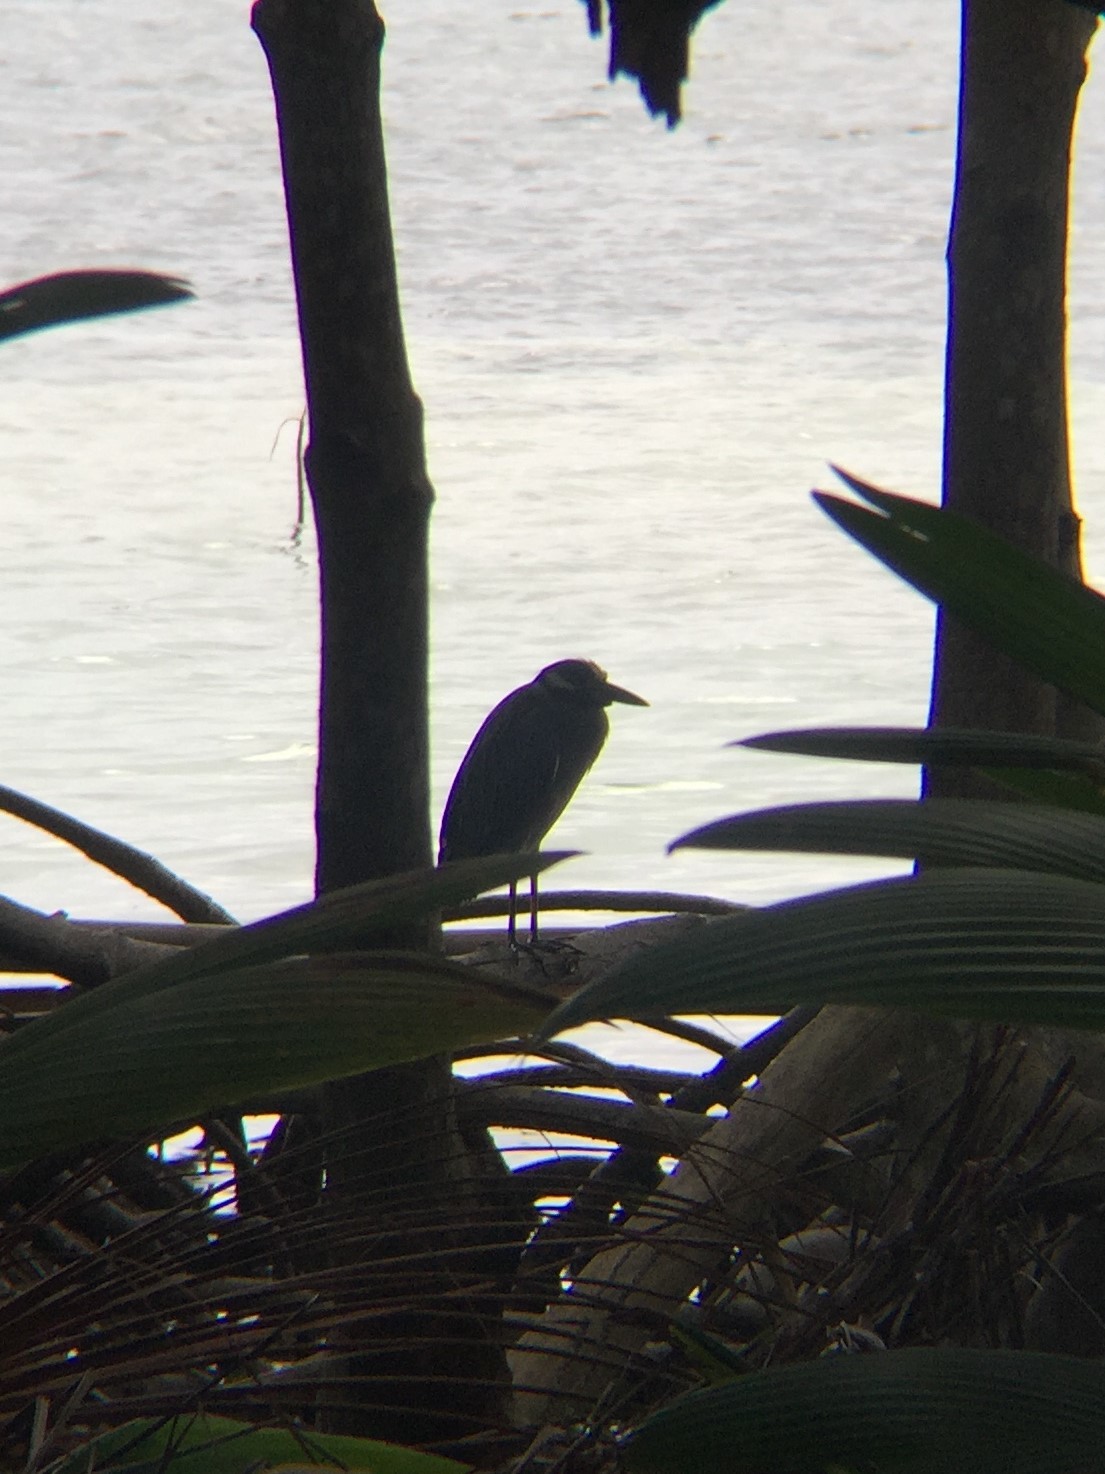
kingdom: Animalia
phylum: Chordata
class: Aves
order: Pelecaniformes
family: Ardeidae
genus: Nyctanassa
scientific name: Nyctanassa violacea
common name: Yellow-crowned night heron
